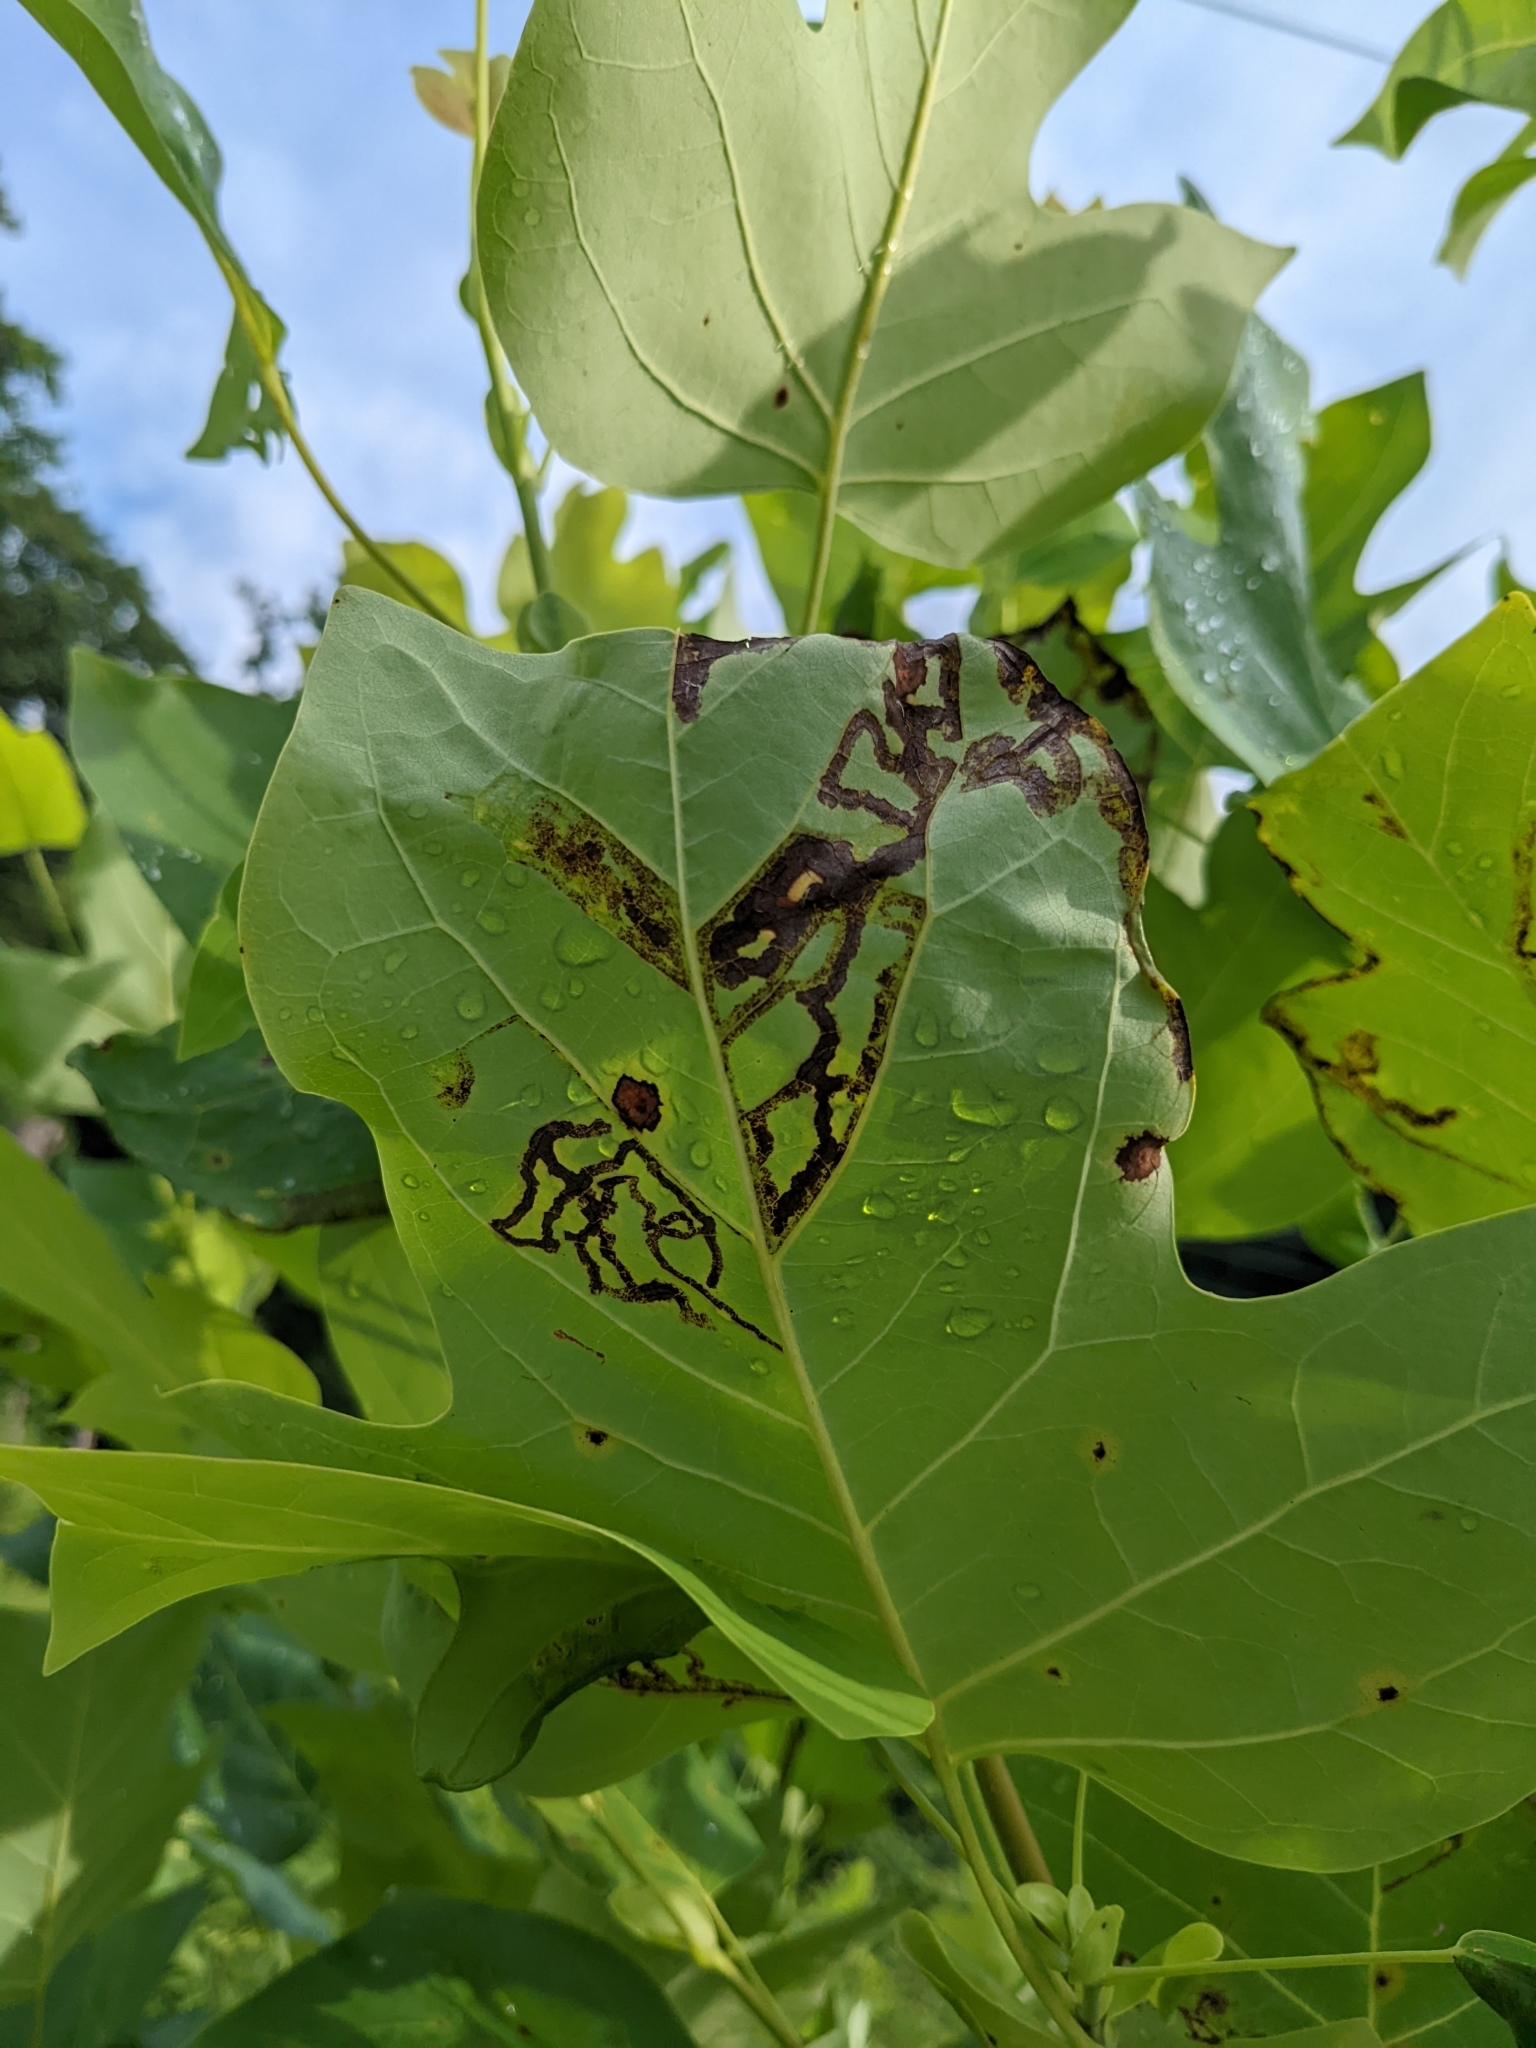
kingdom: Animalia
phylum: Arthropoda
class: Insecta
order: Lepidoptera
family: Gracillariidae
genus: Phyllocnistis
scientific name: Phyllocnistis liriodendronella
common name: Tulip tree leaf miner
